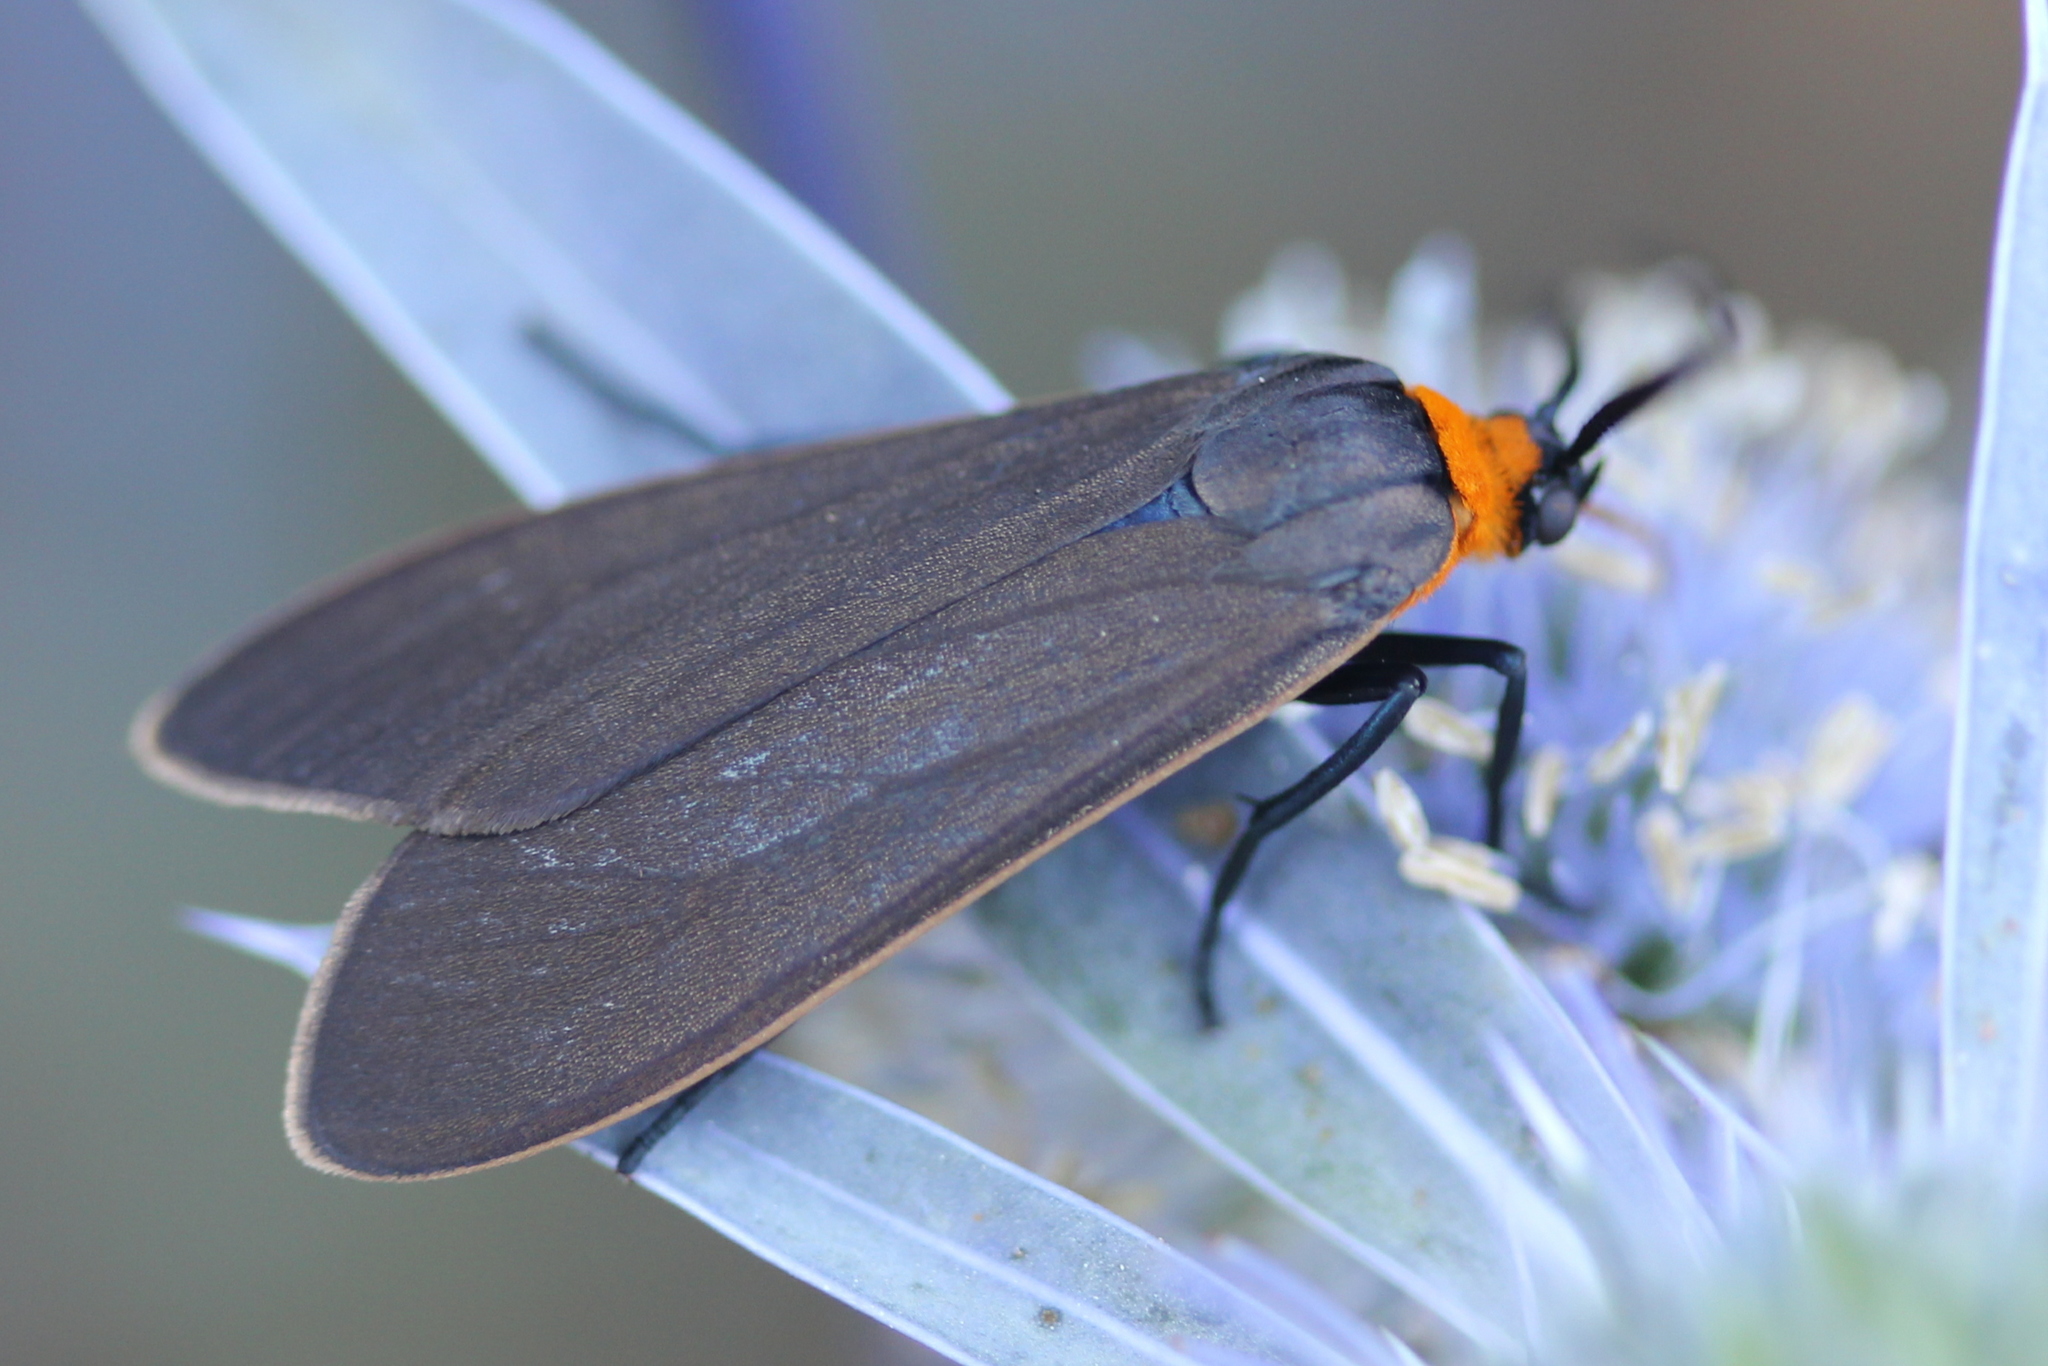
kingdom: Animalia
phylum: Arthropoda
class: Insecta
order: Lepidoptera
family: Erebidae
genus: Cisseps
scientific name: Cisseps fulvicollis
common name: Yellow-collared scape moth
